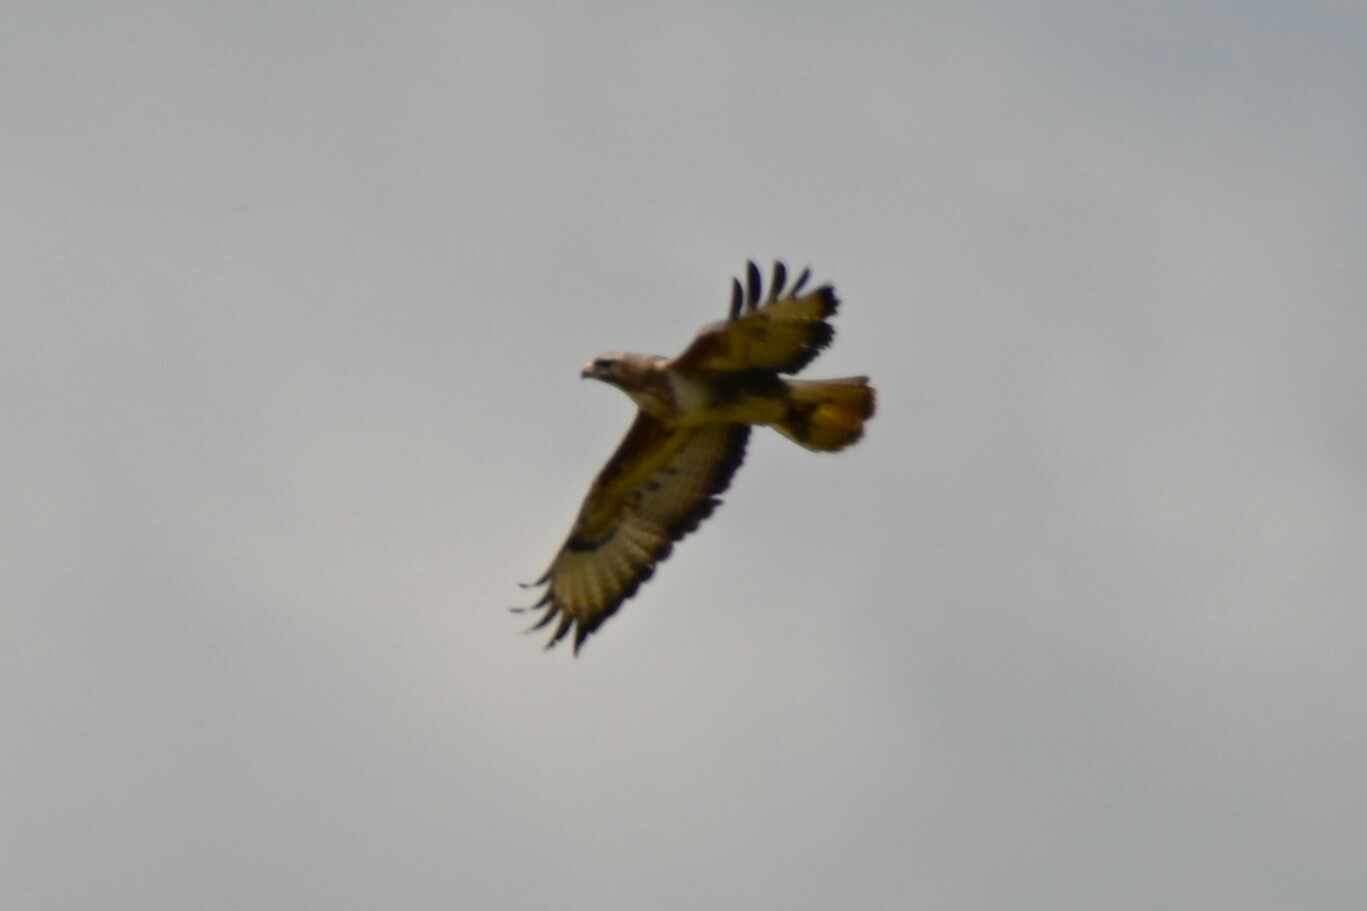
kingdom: Animalia
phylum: Chordata
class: Aves
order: Accipitriformes
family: Accipitridae
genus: Buteo
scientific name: Buteo buteo
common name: Common buzzard
